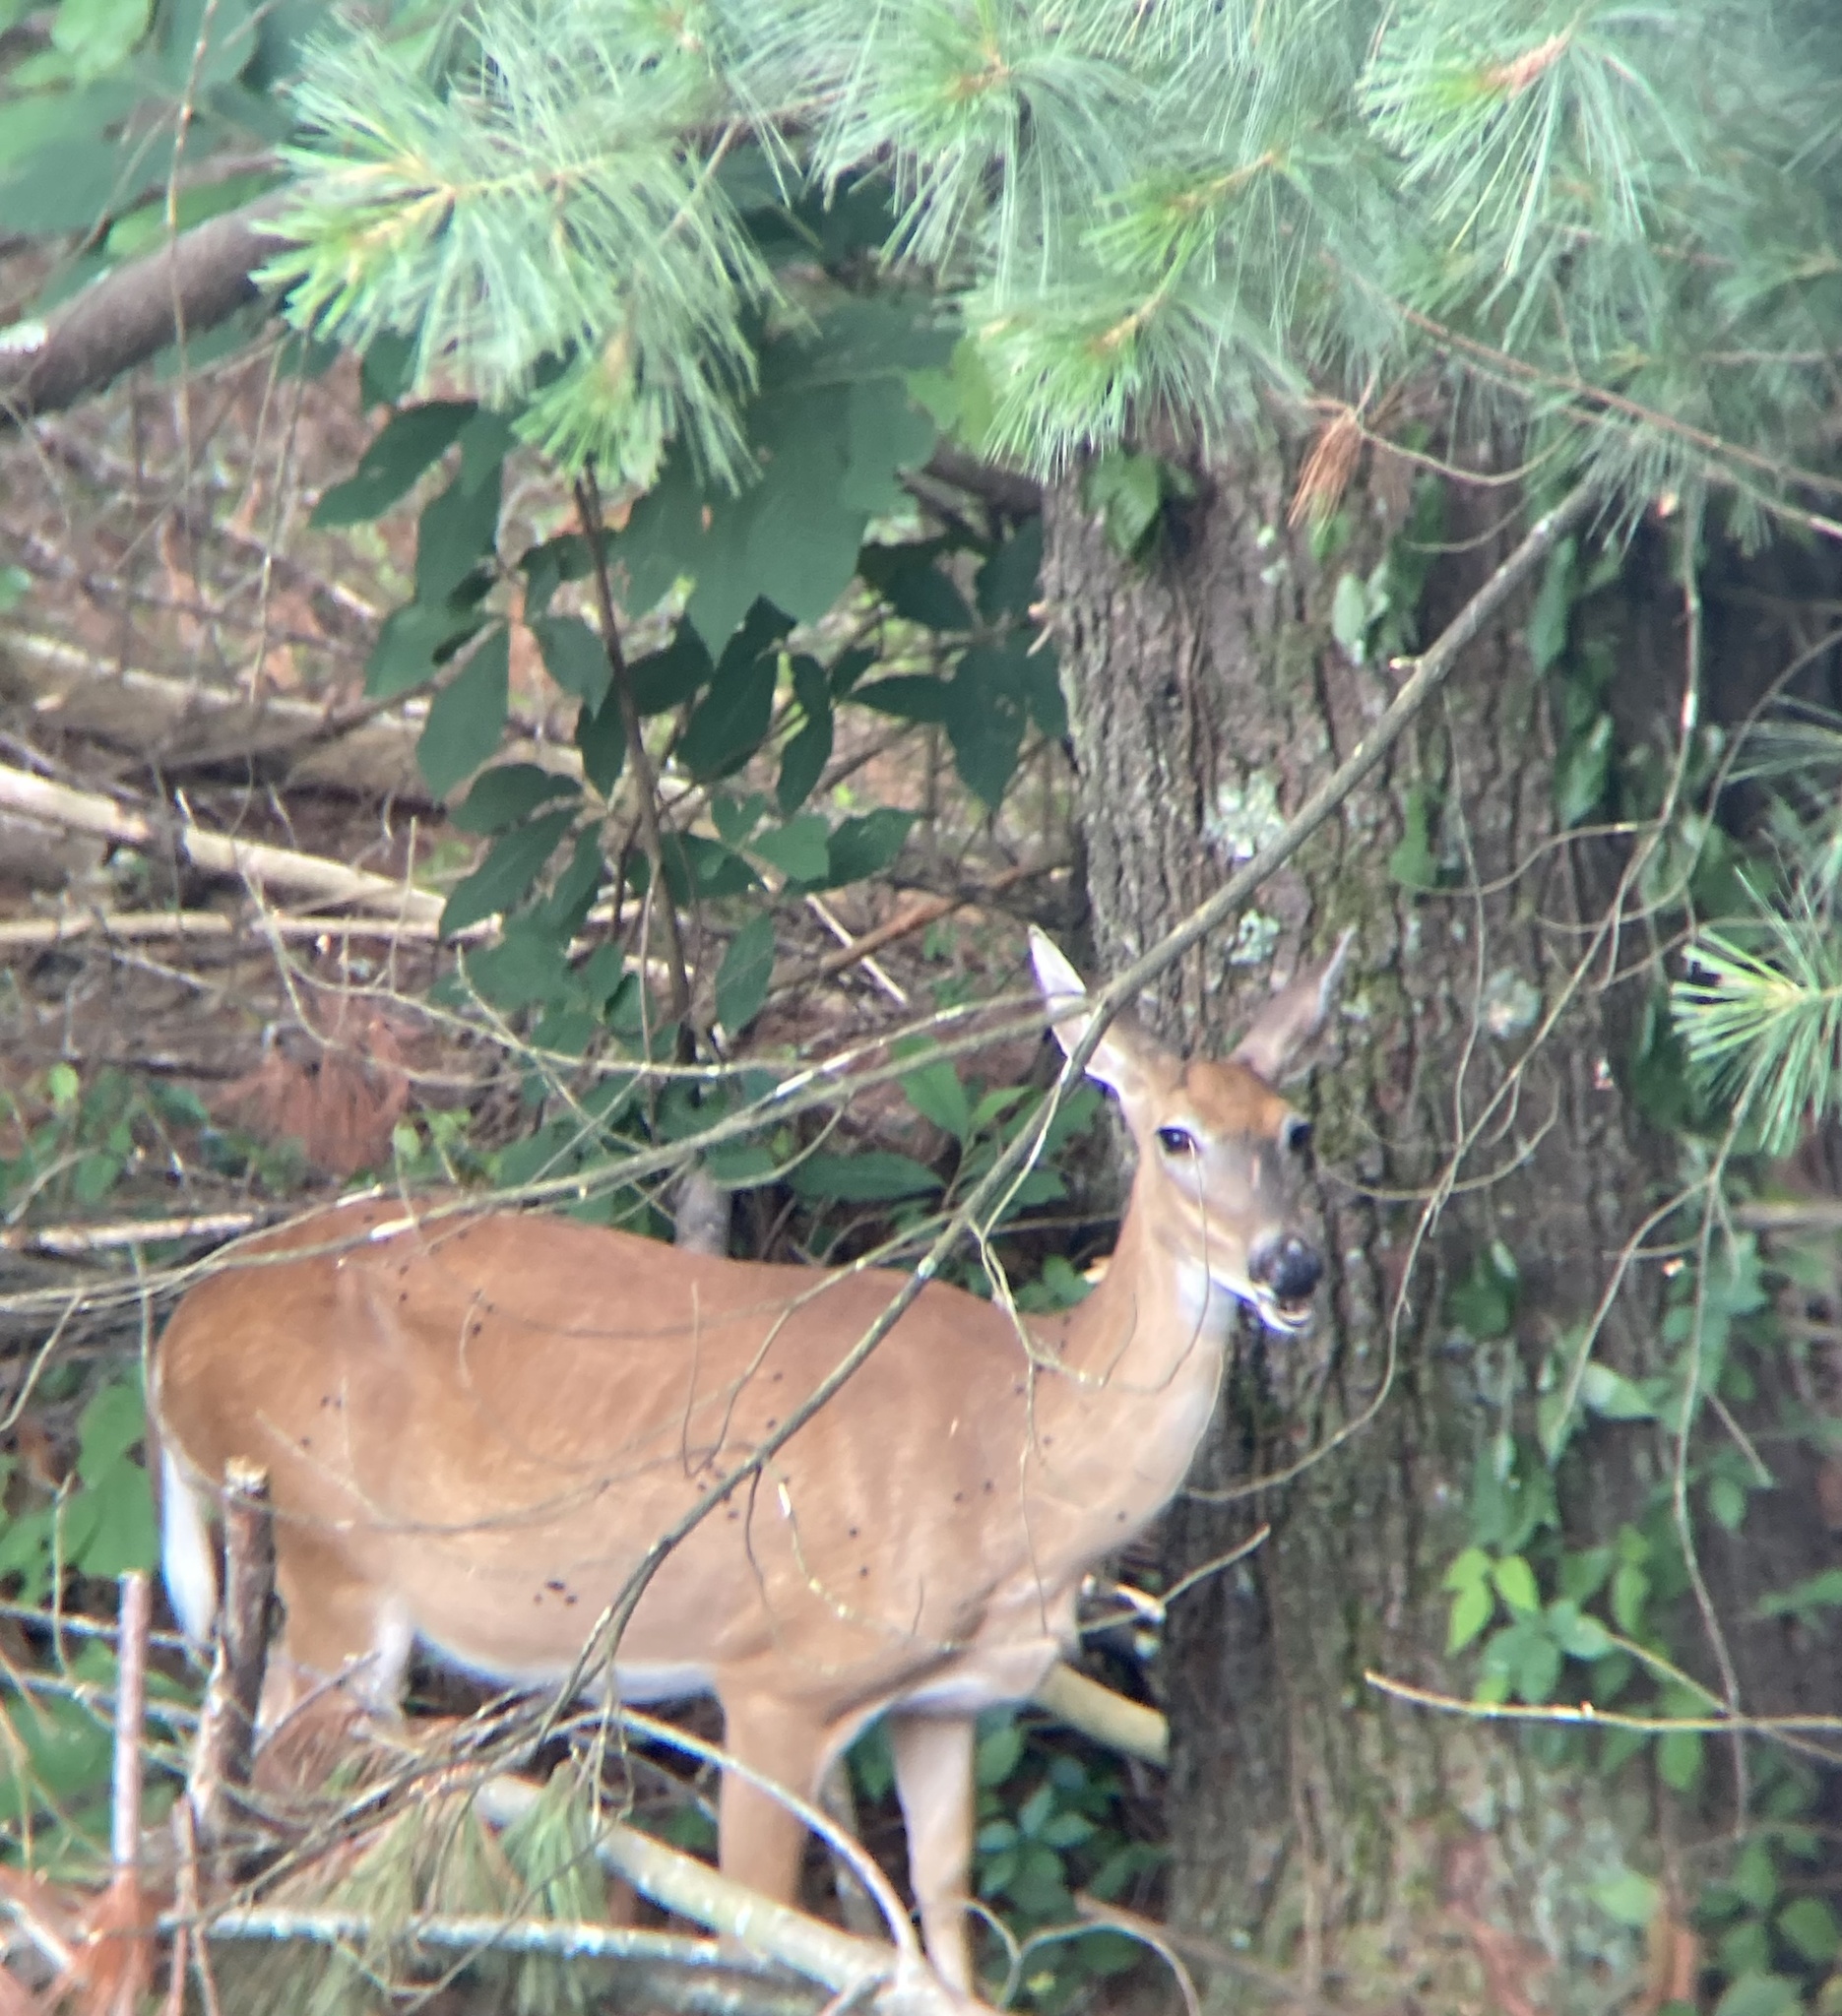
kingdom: Animalia
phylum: Chordata
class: Mammalia
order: Artiodactyla
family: Cervidae
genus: Odocoileus
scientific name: Odocoileus virginianus
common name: White-tailed deer
